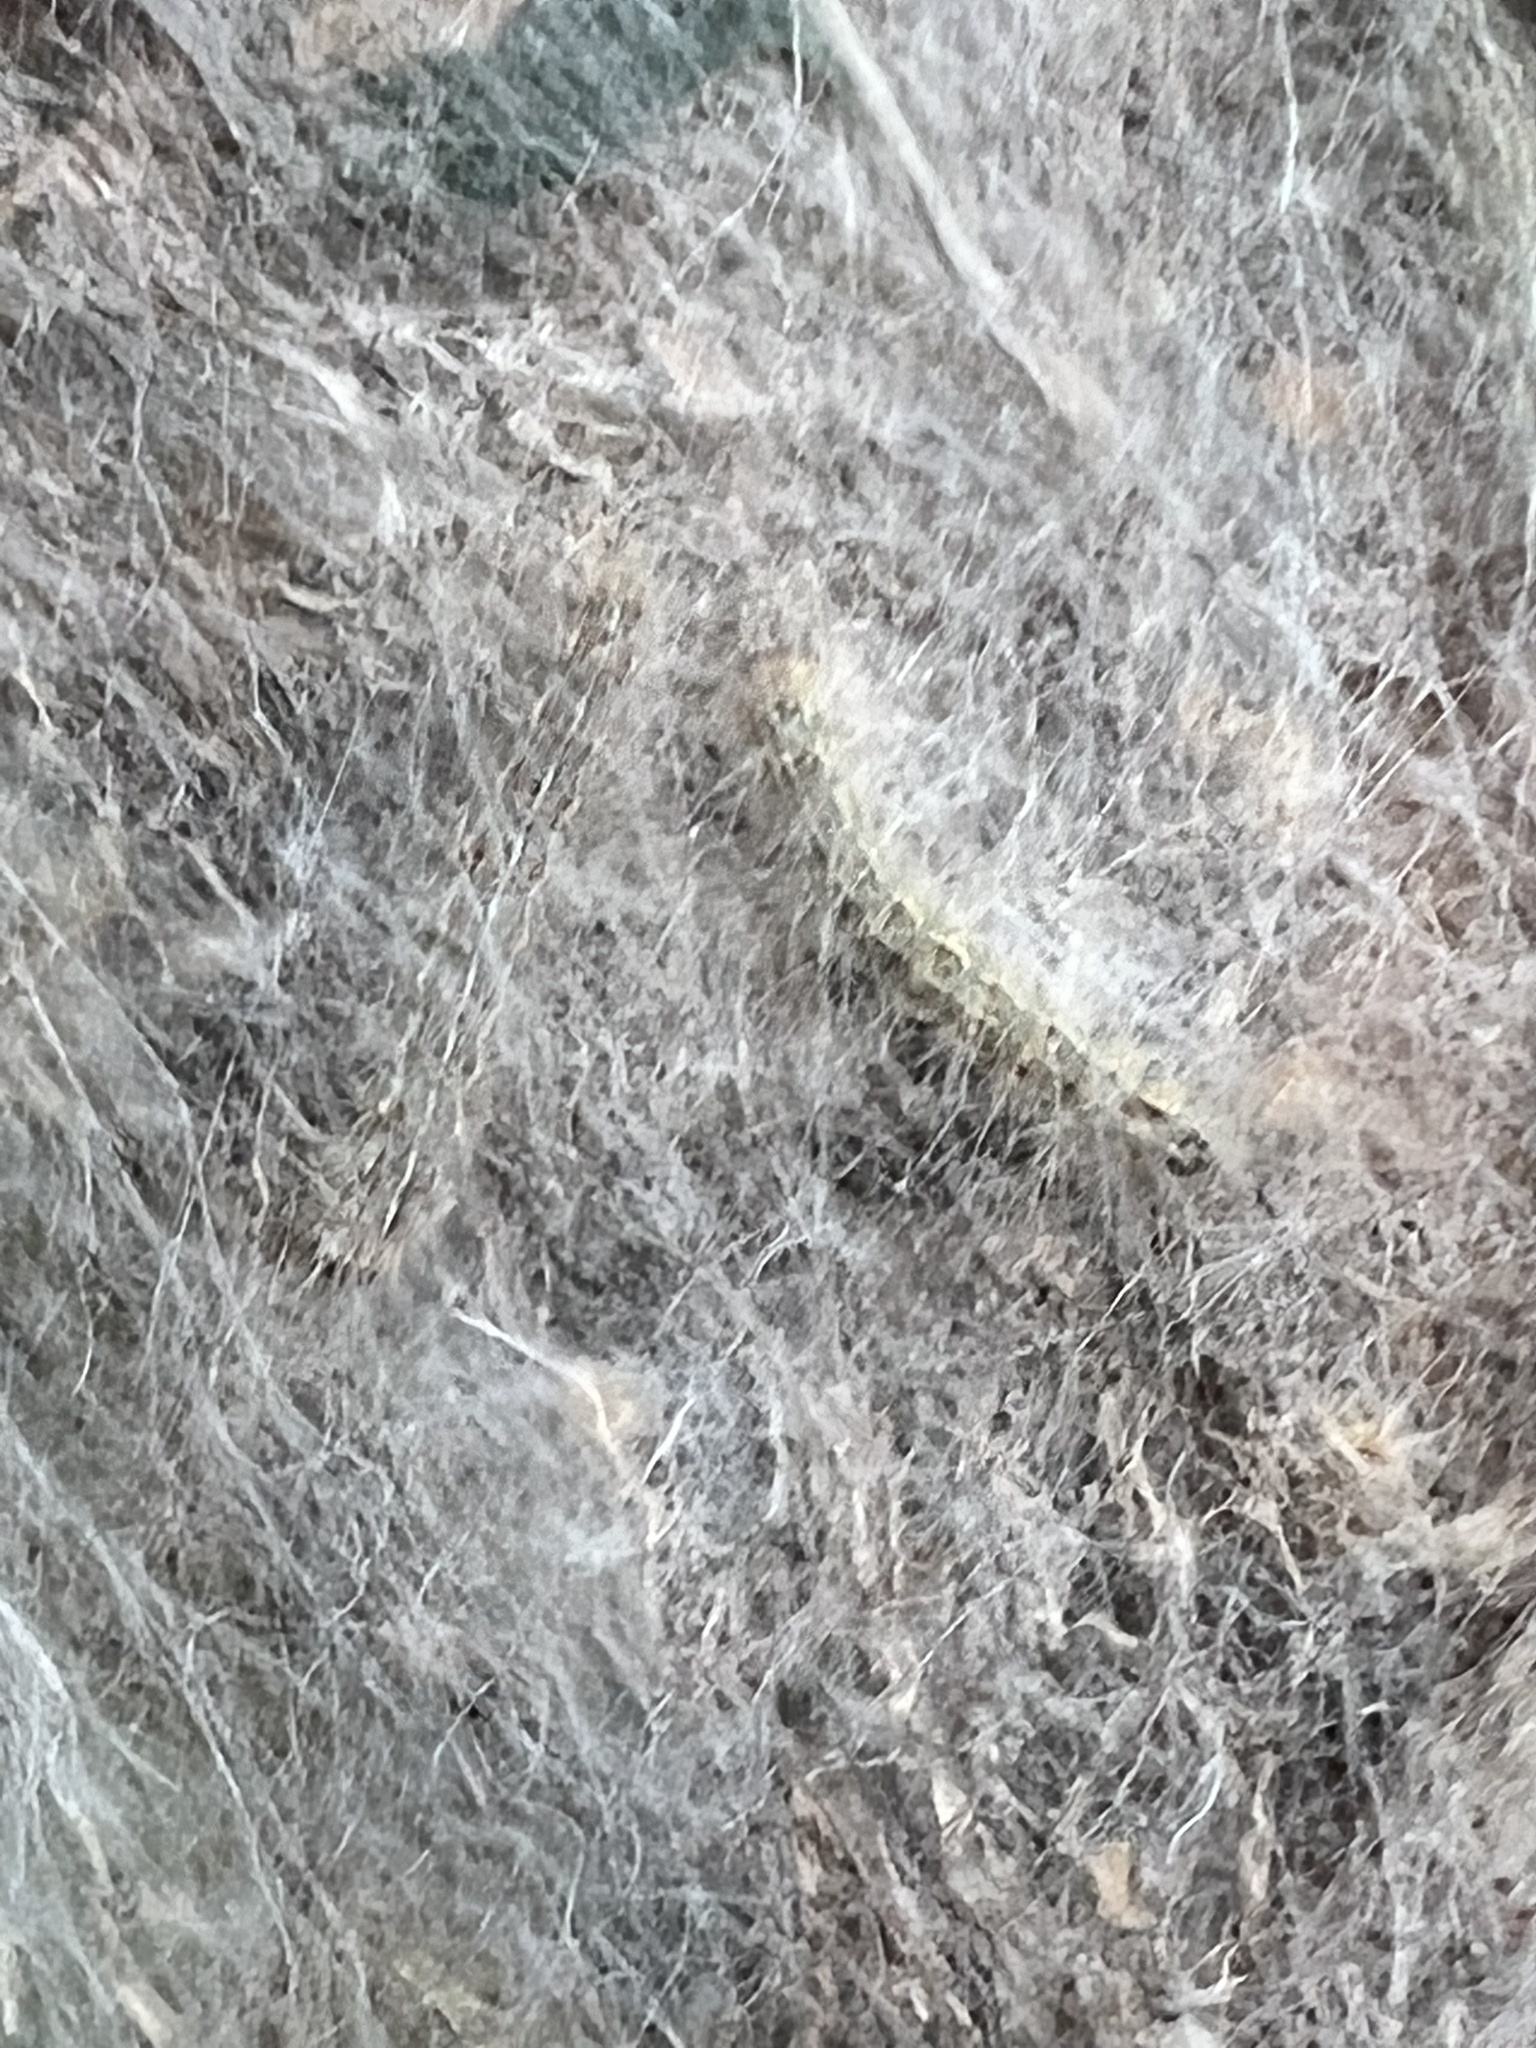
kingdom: Animalia
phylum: Arthropoda
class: Insecta
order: Lepidoptera
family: Erebidae
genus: Hyphantria
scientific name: Hyphantria cunea
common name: American white moth
